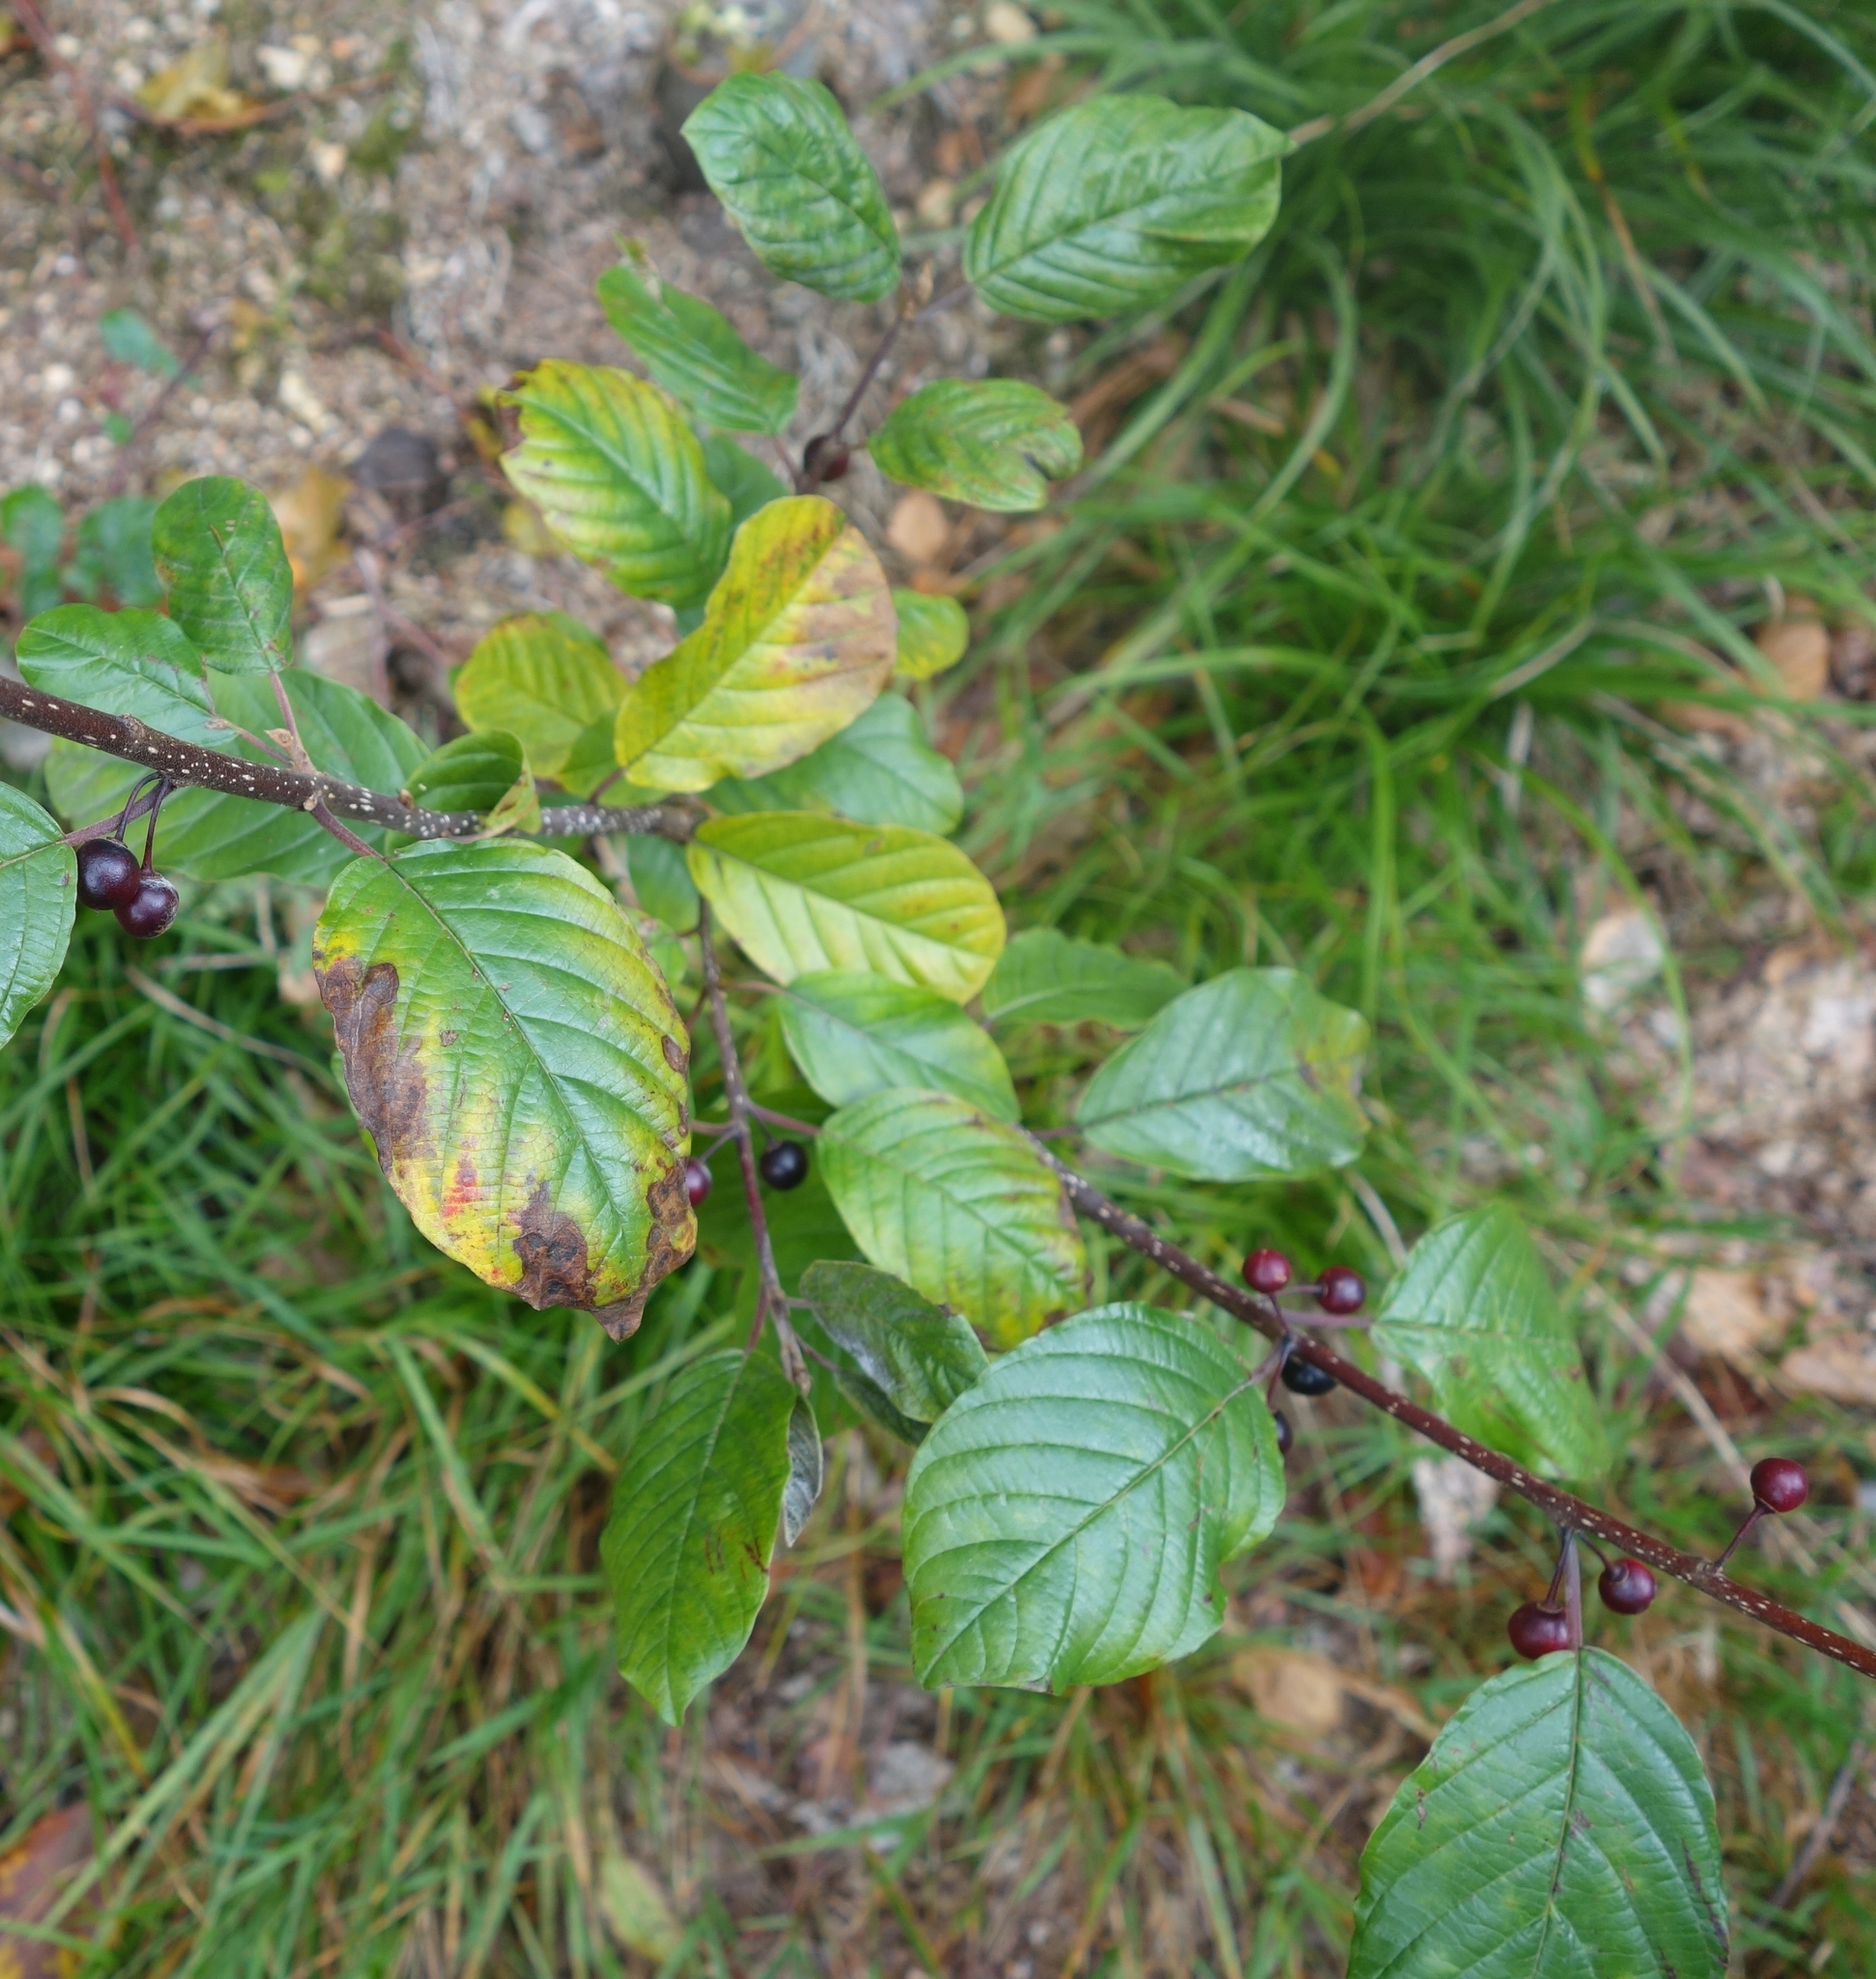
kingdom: Plantae
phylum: Tracheophyta
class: Magnoliopsida
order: Rosales
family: Rhamnaceae
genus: Frangula
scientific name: Frangula alnus
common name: Alder buckthorn
